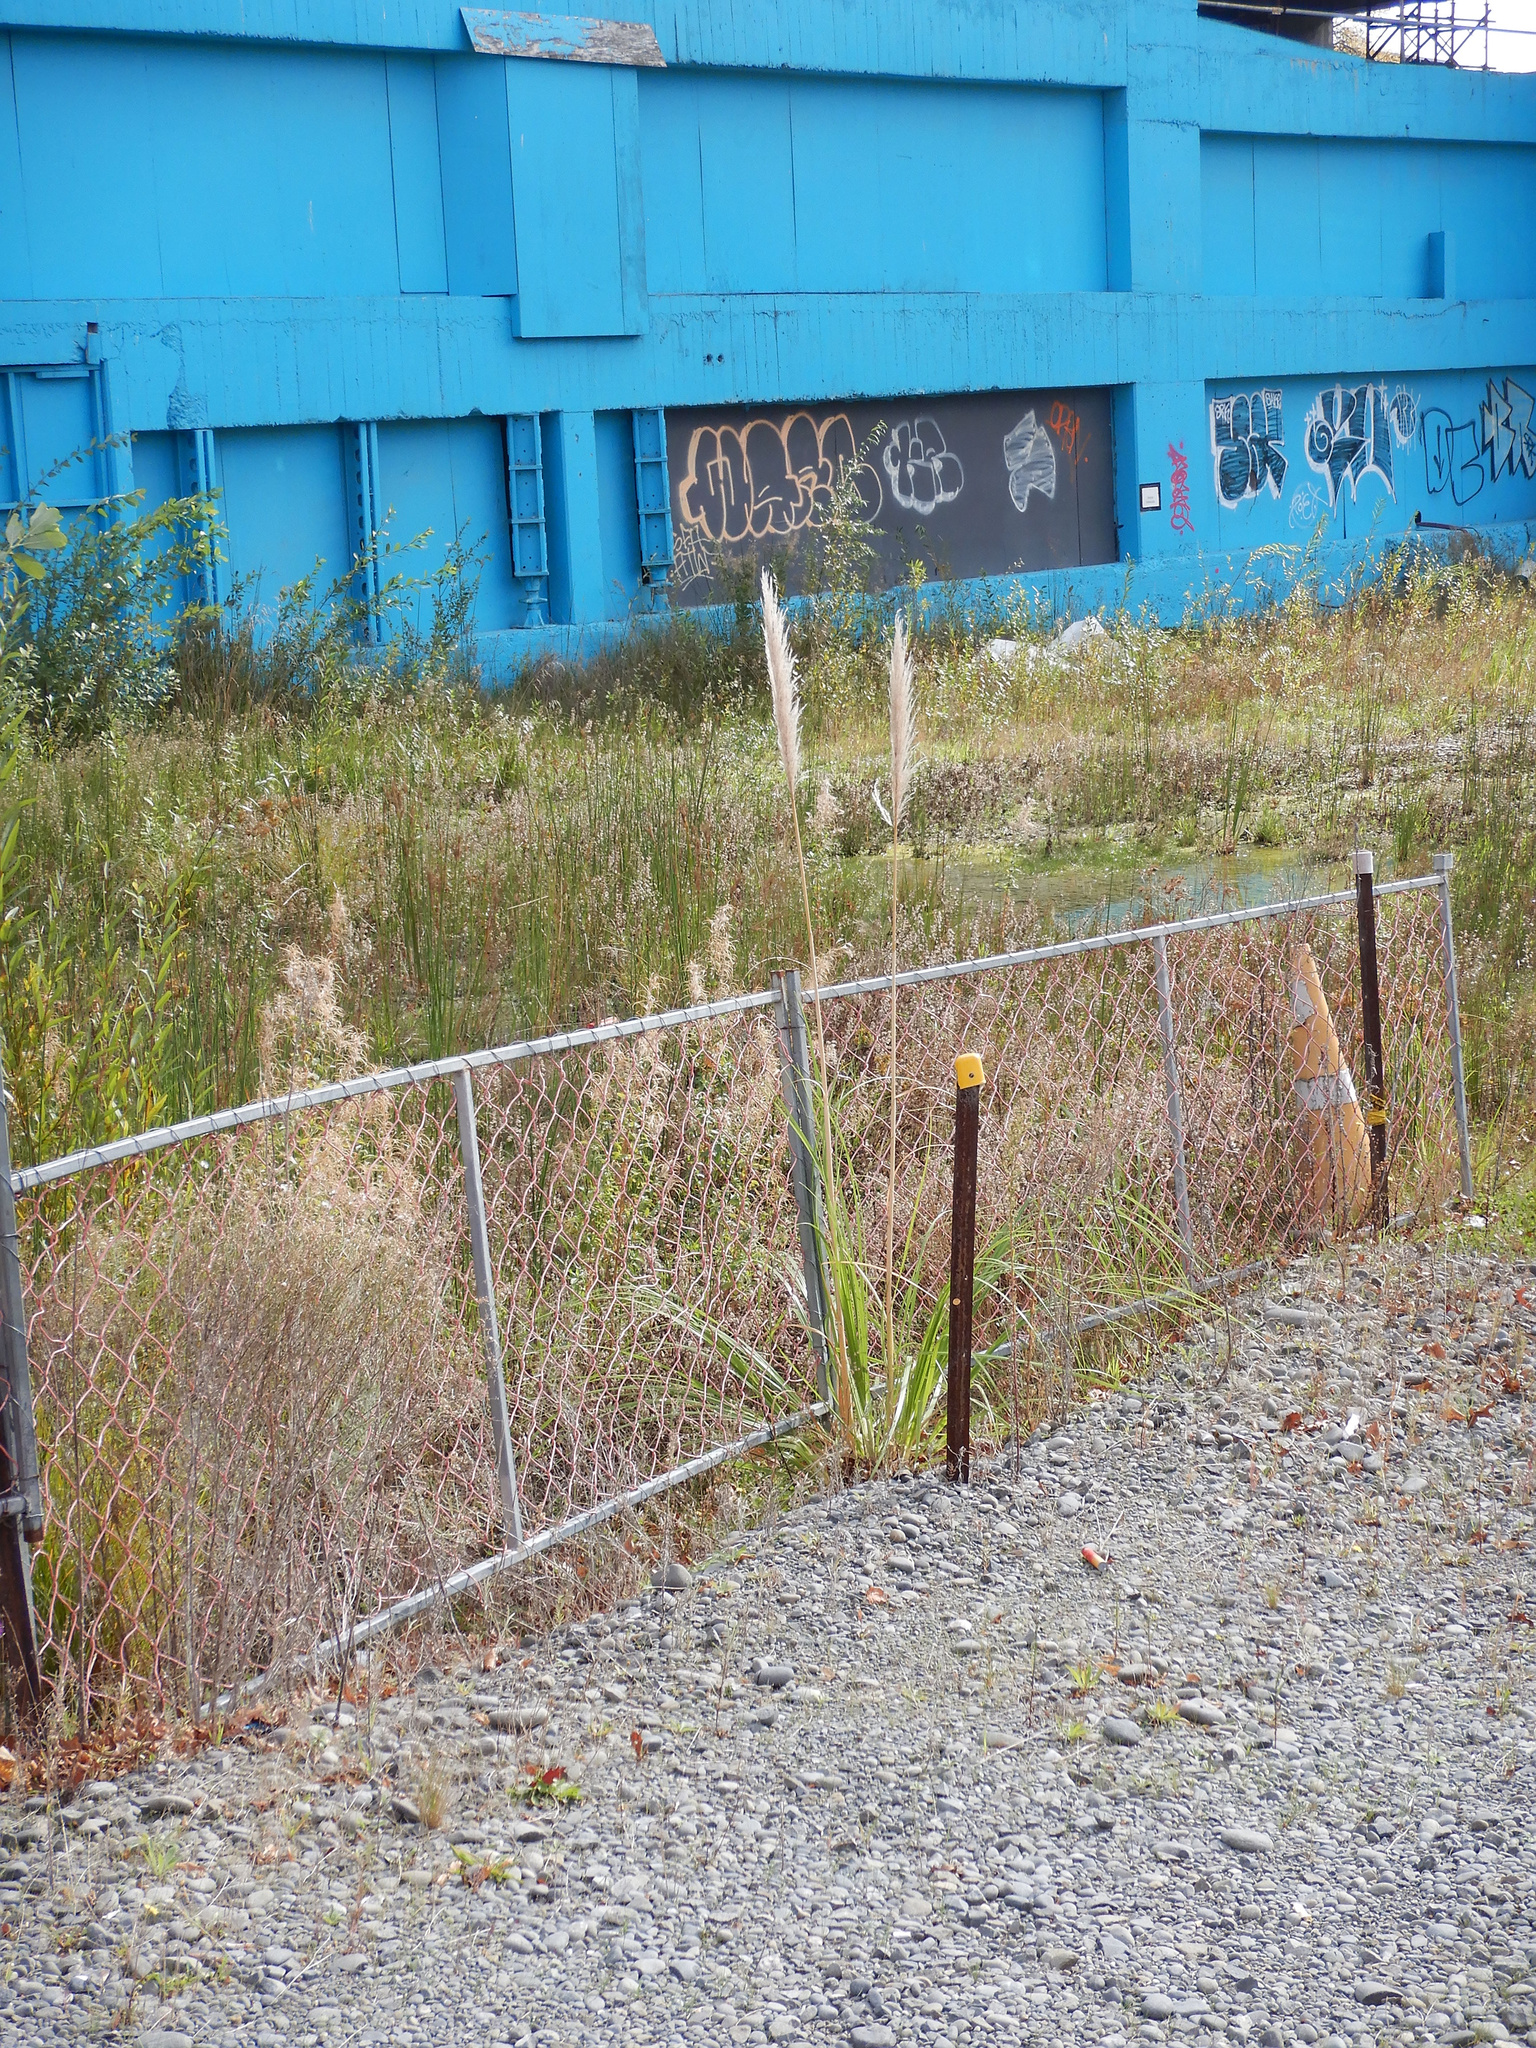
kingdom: Plantae
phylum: Tracheophyta
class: Liliopsida
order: Poales
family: Poaceae
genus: Cortaderia
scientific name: Cortaderia selloana
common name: Uruguayan pampas grass
